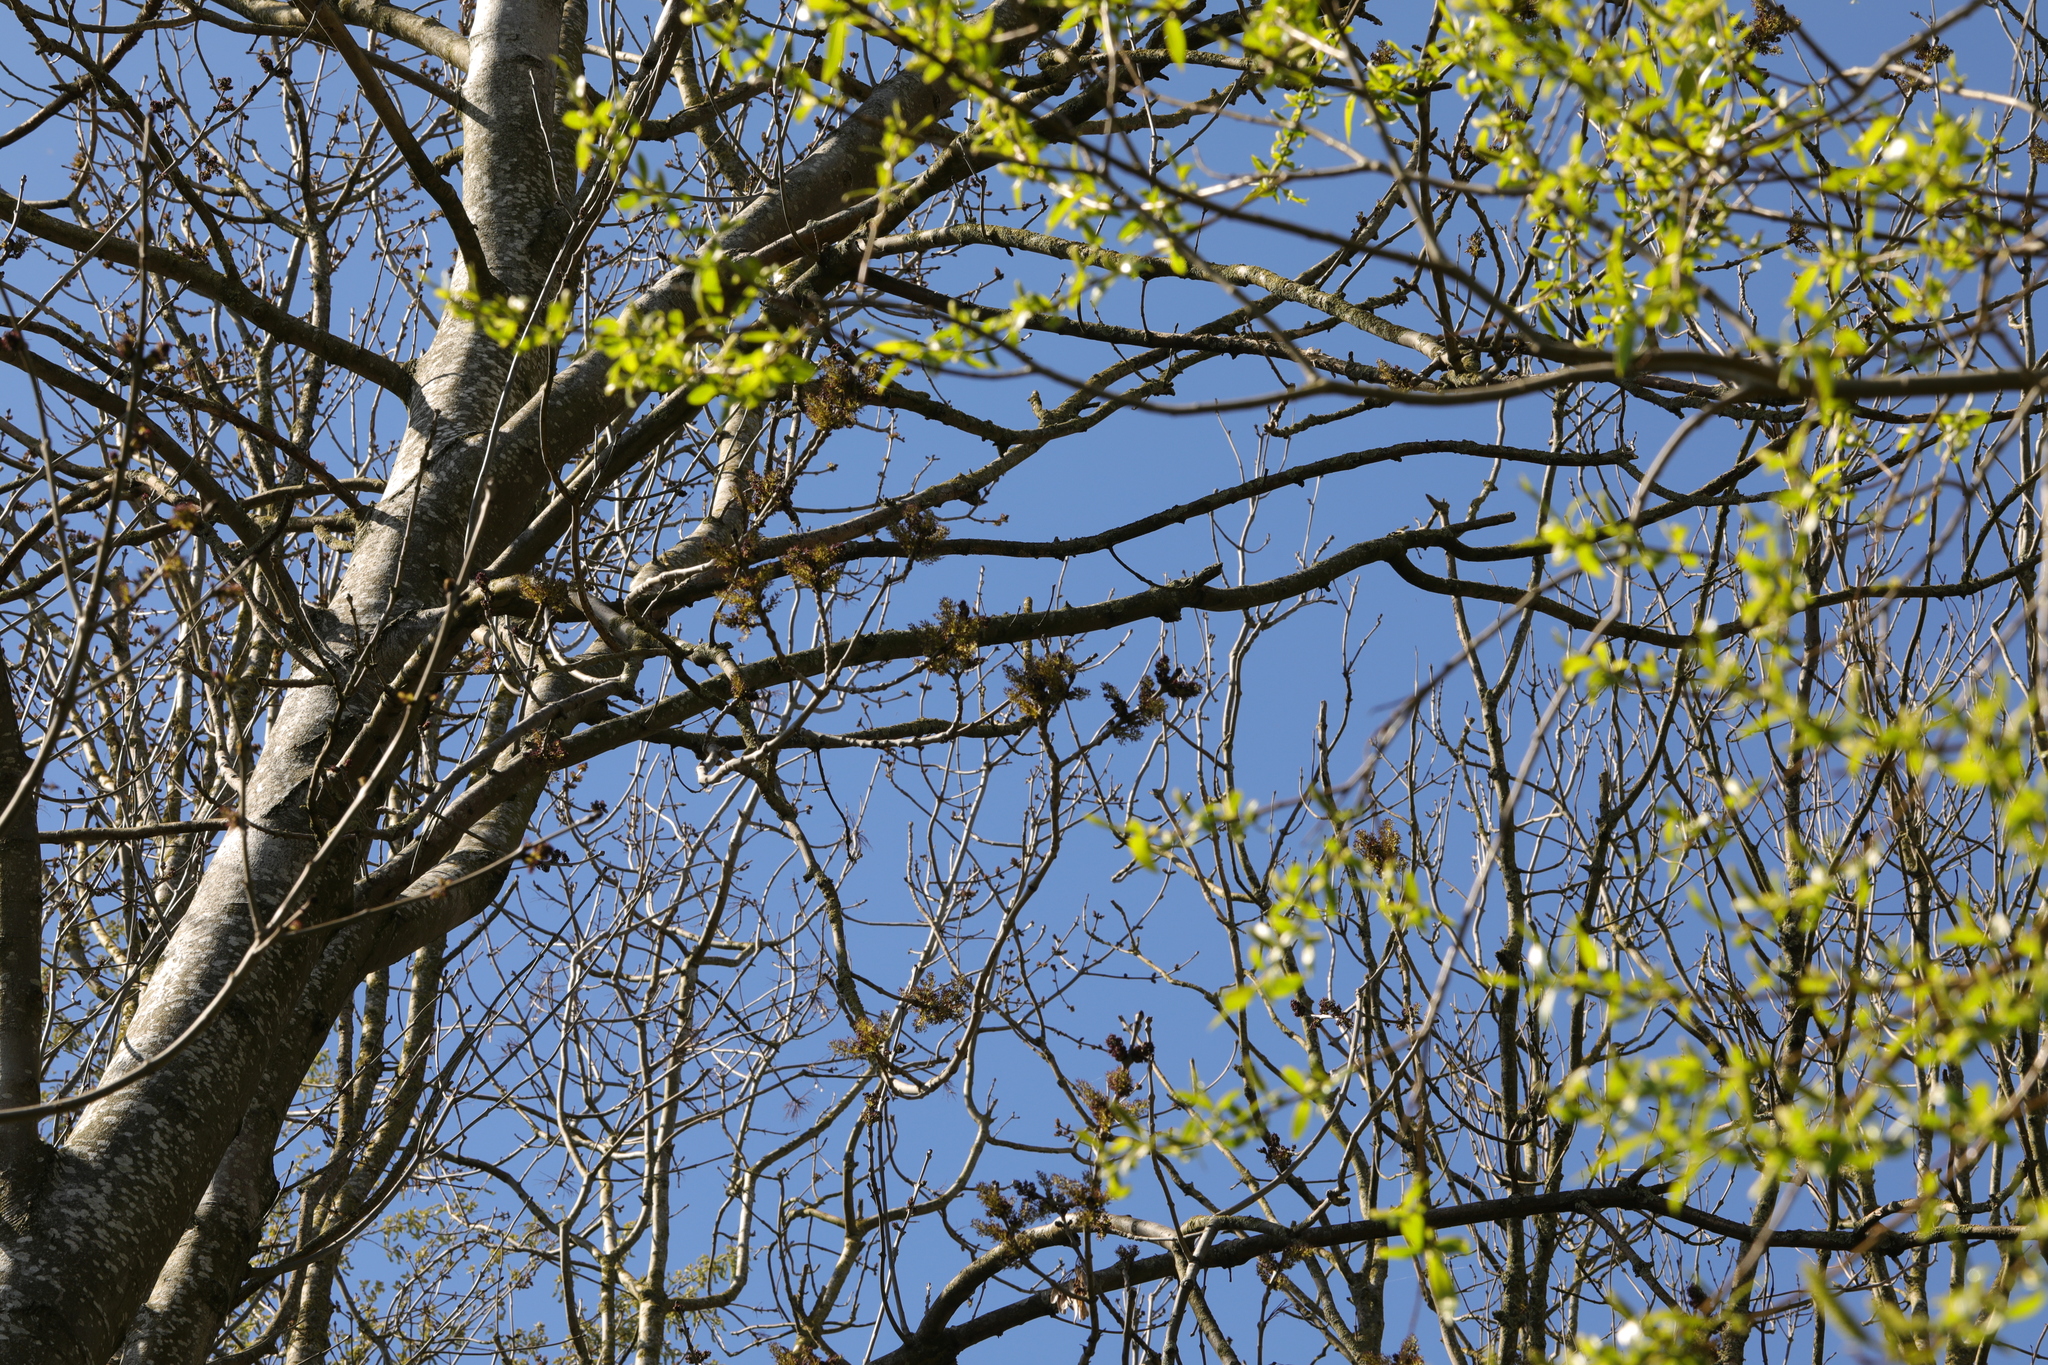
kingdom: Plantae
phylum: Tracheophyta
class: Magnoliopsida
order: Lamiales
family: Oleaceae
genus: Fraxinus
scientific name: Fraxinus excelsior
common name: European ash
